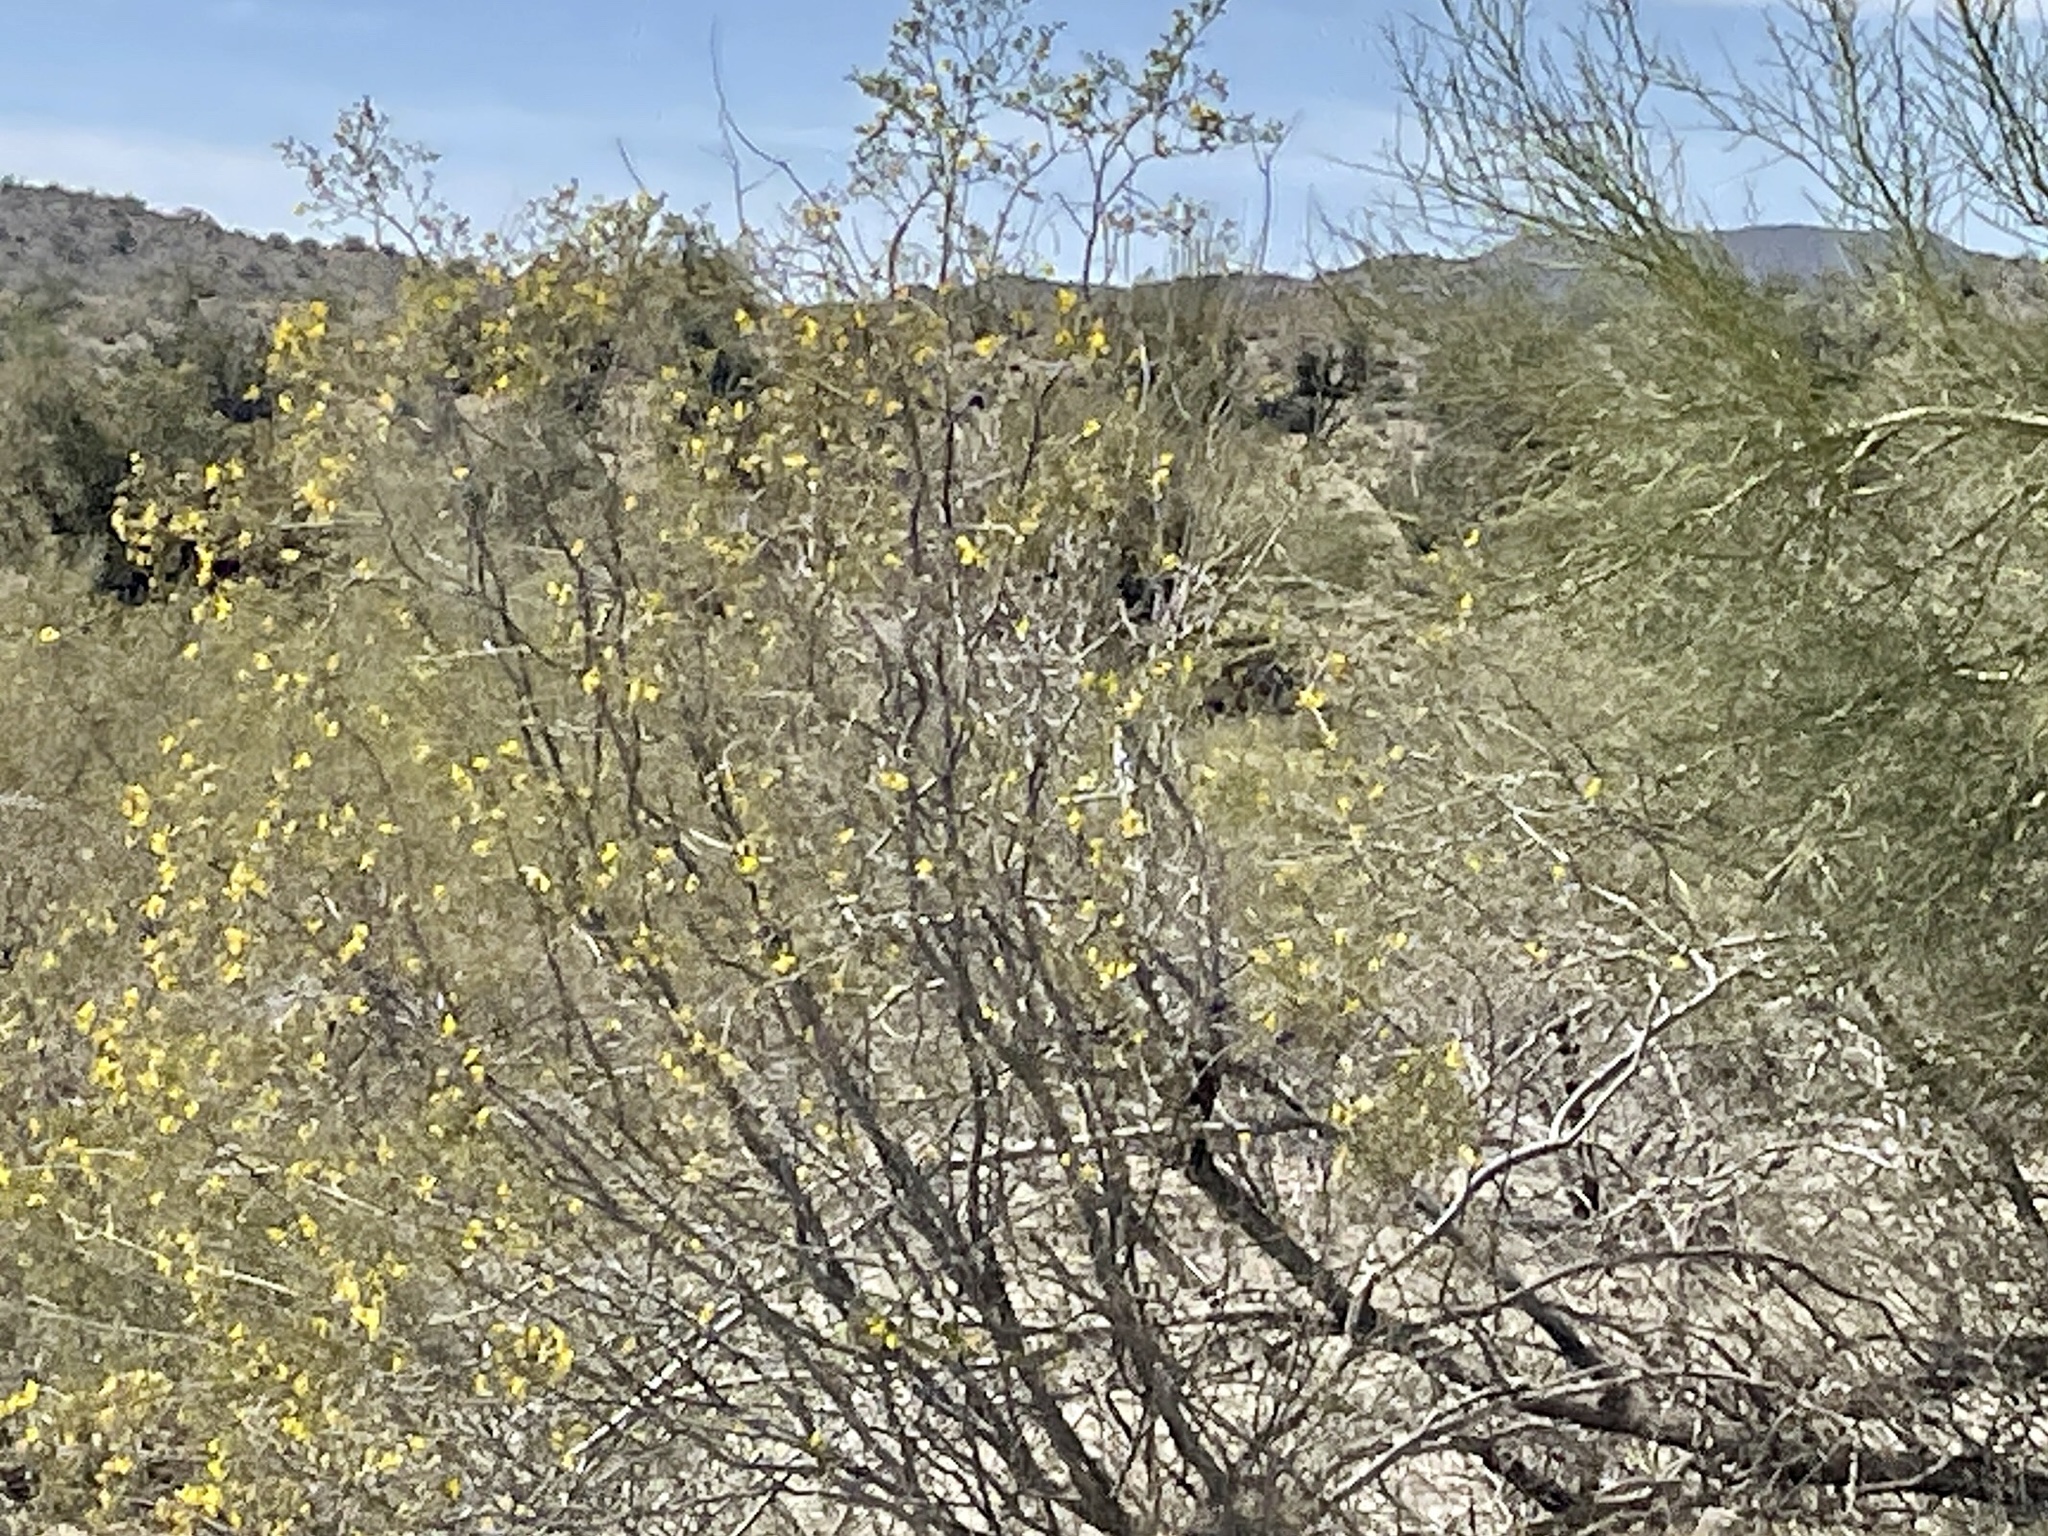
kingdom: Plantae
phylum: Tracheophyta
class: Magnoliopsida
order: Zygophyllales
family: Zygophyllaceae
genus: Larrea
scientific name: Larrea tridentata
